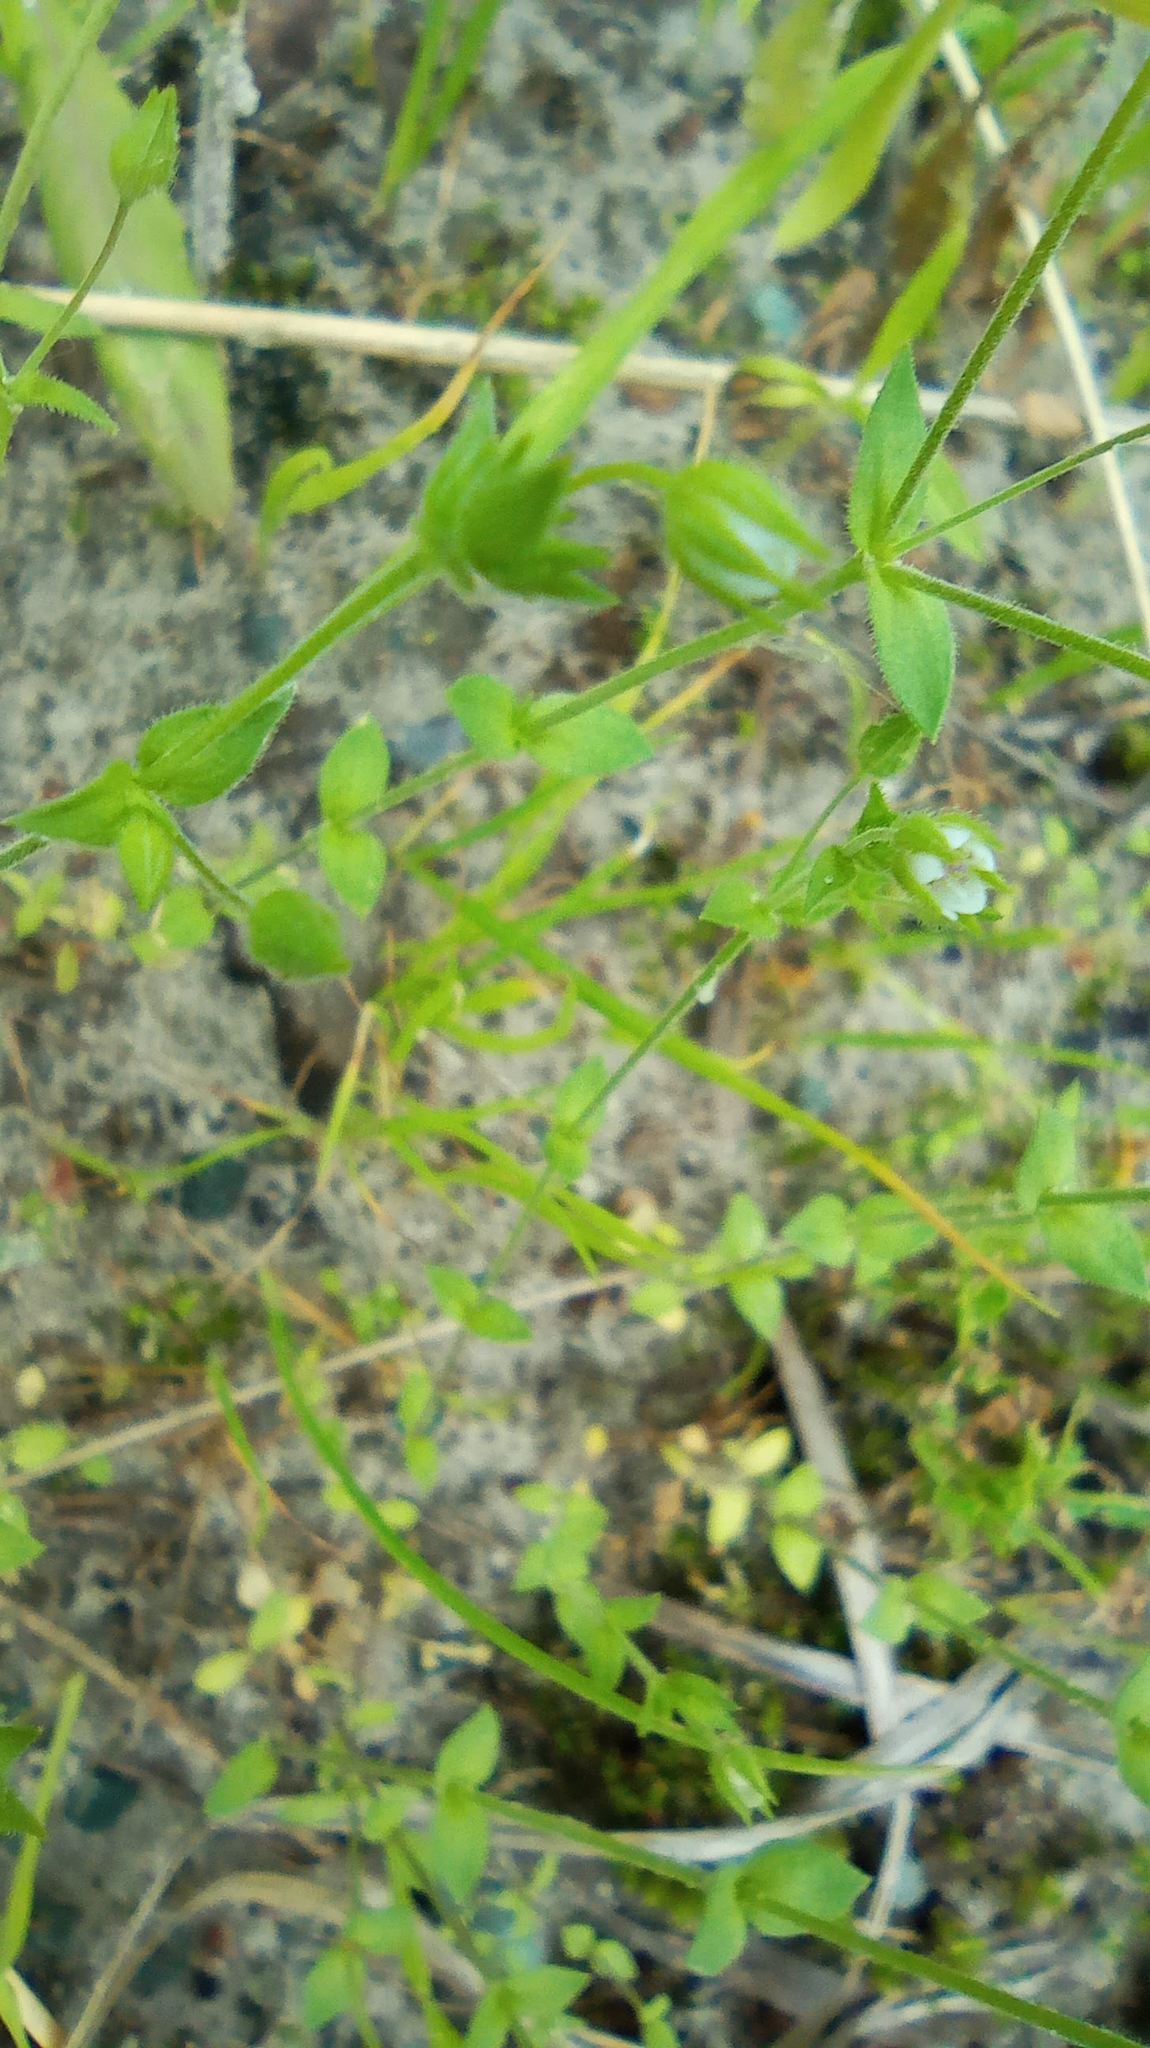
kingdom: Plantae
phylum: Tracheophyta
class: Magnoliopsida
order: Caryophyllales
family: Caryophyllaceae
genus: Arenaria
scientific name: Arenaria serpyllifolia
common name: Thyme-leaved sandwort
